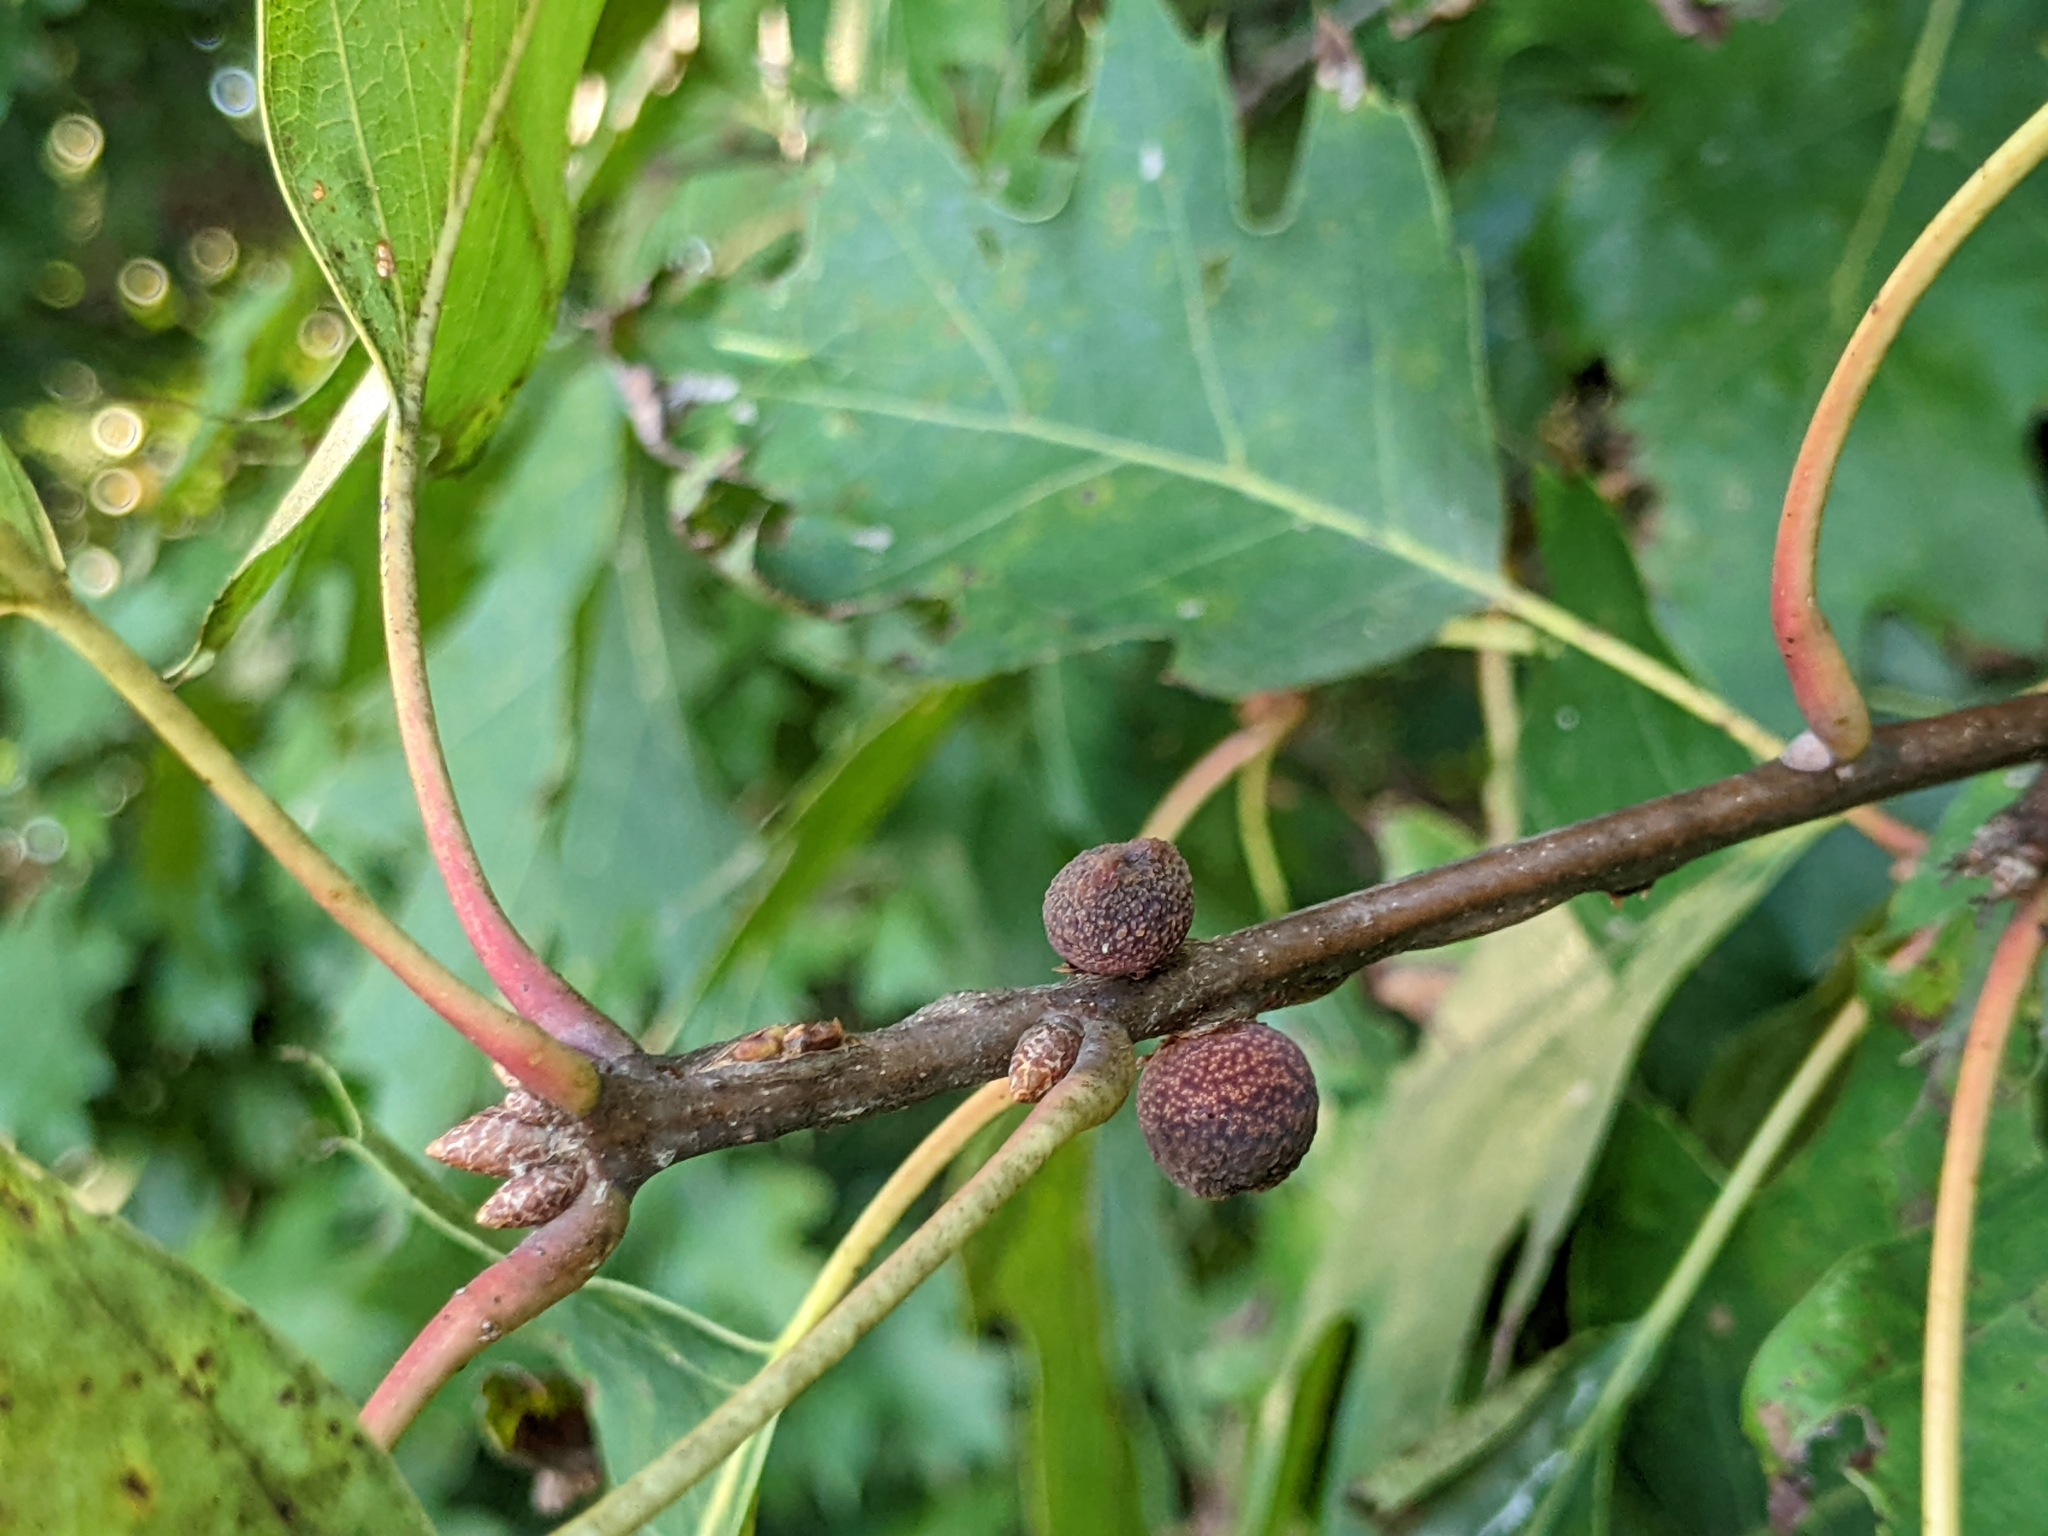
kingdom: Plantae
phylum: Tracheophyta
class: Magnoliopsida
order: Fagales
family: Fagaceae
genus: Quercus
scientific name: Quercus rubra
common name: Red oak
